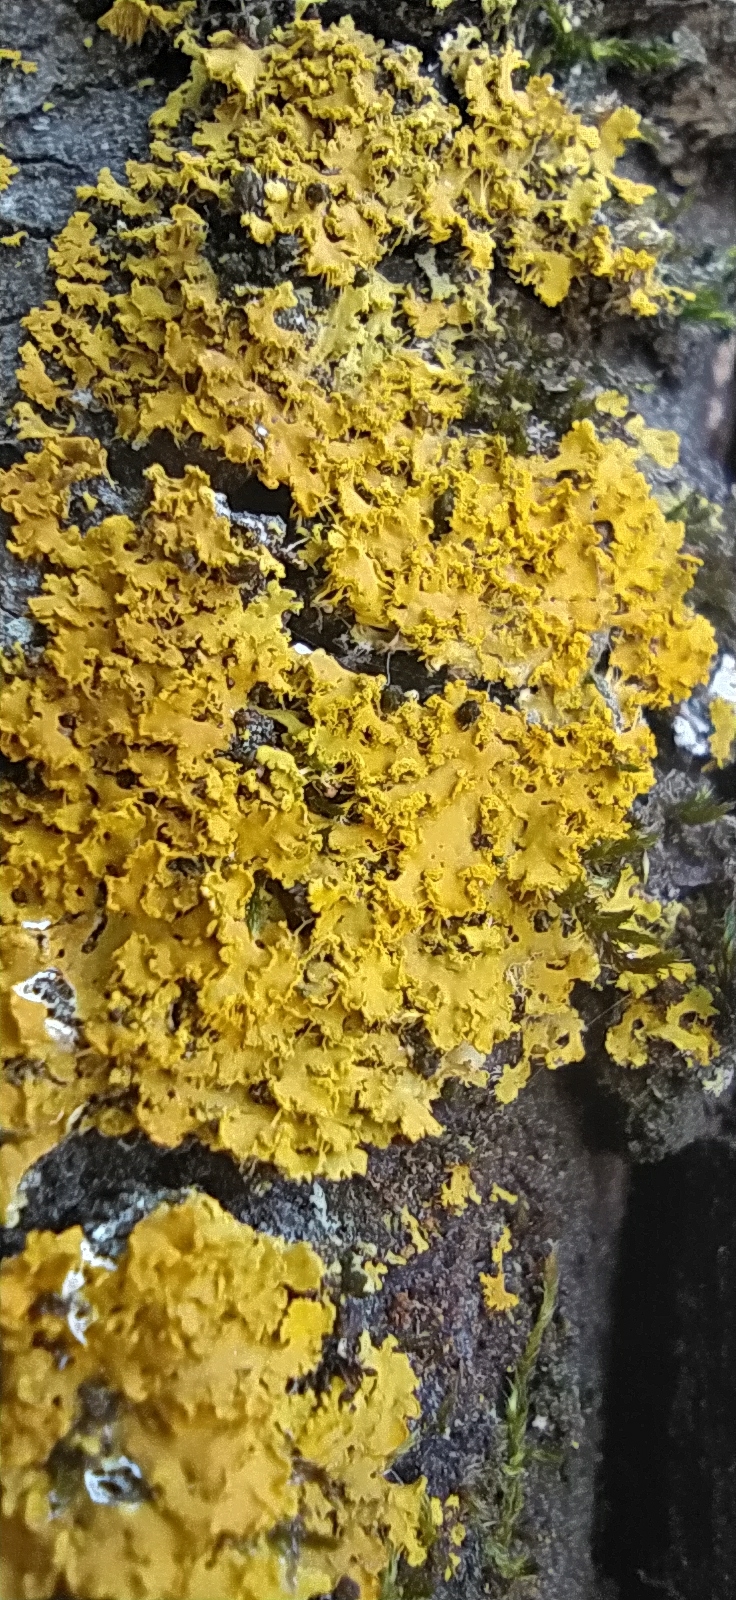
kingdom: Fungi
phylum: Ascomycota
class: Lecanoromycetes
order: Teloschistales
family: Teloschistaceae
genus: Xanthoria
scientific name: Xanthoria ulophyllodes
